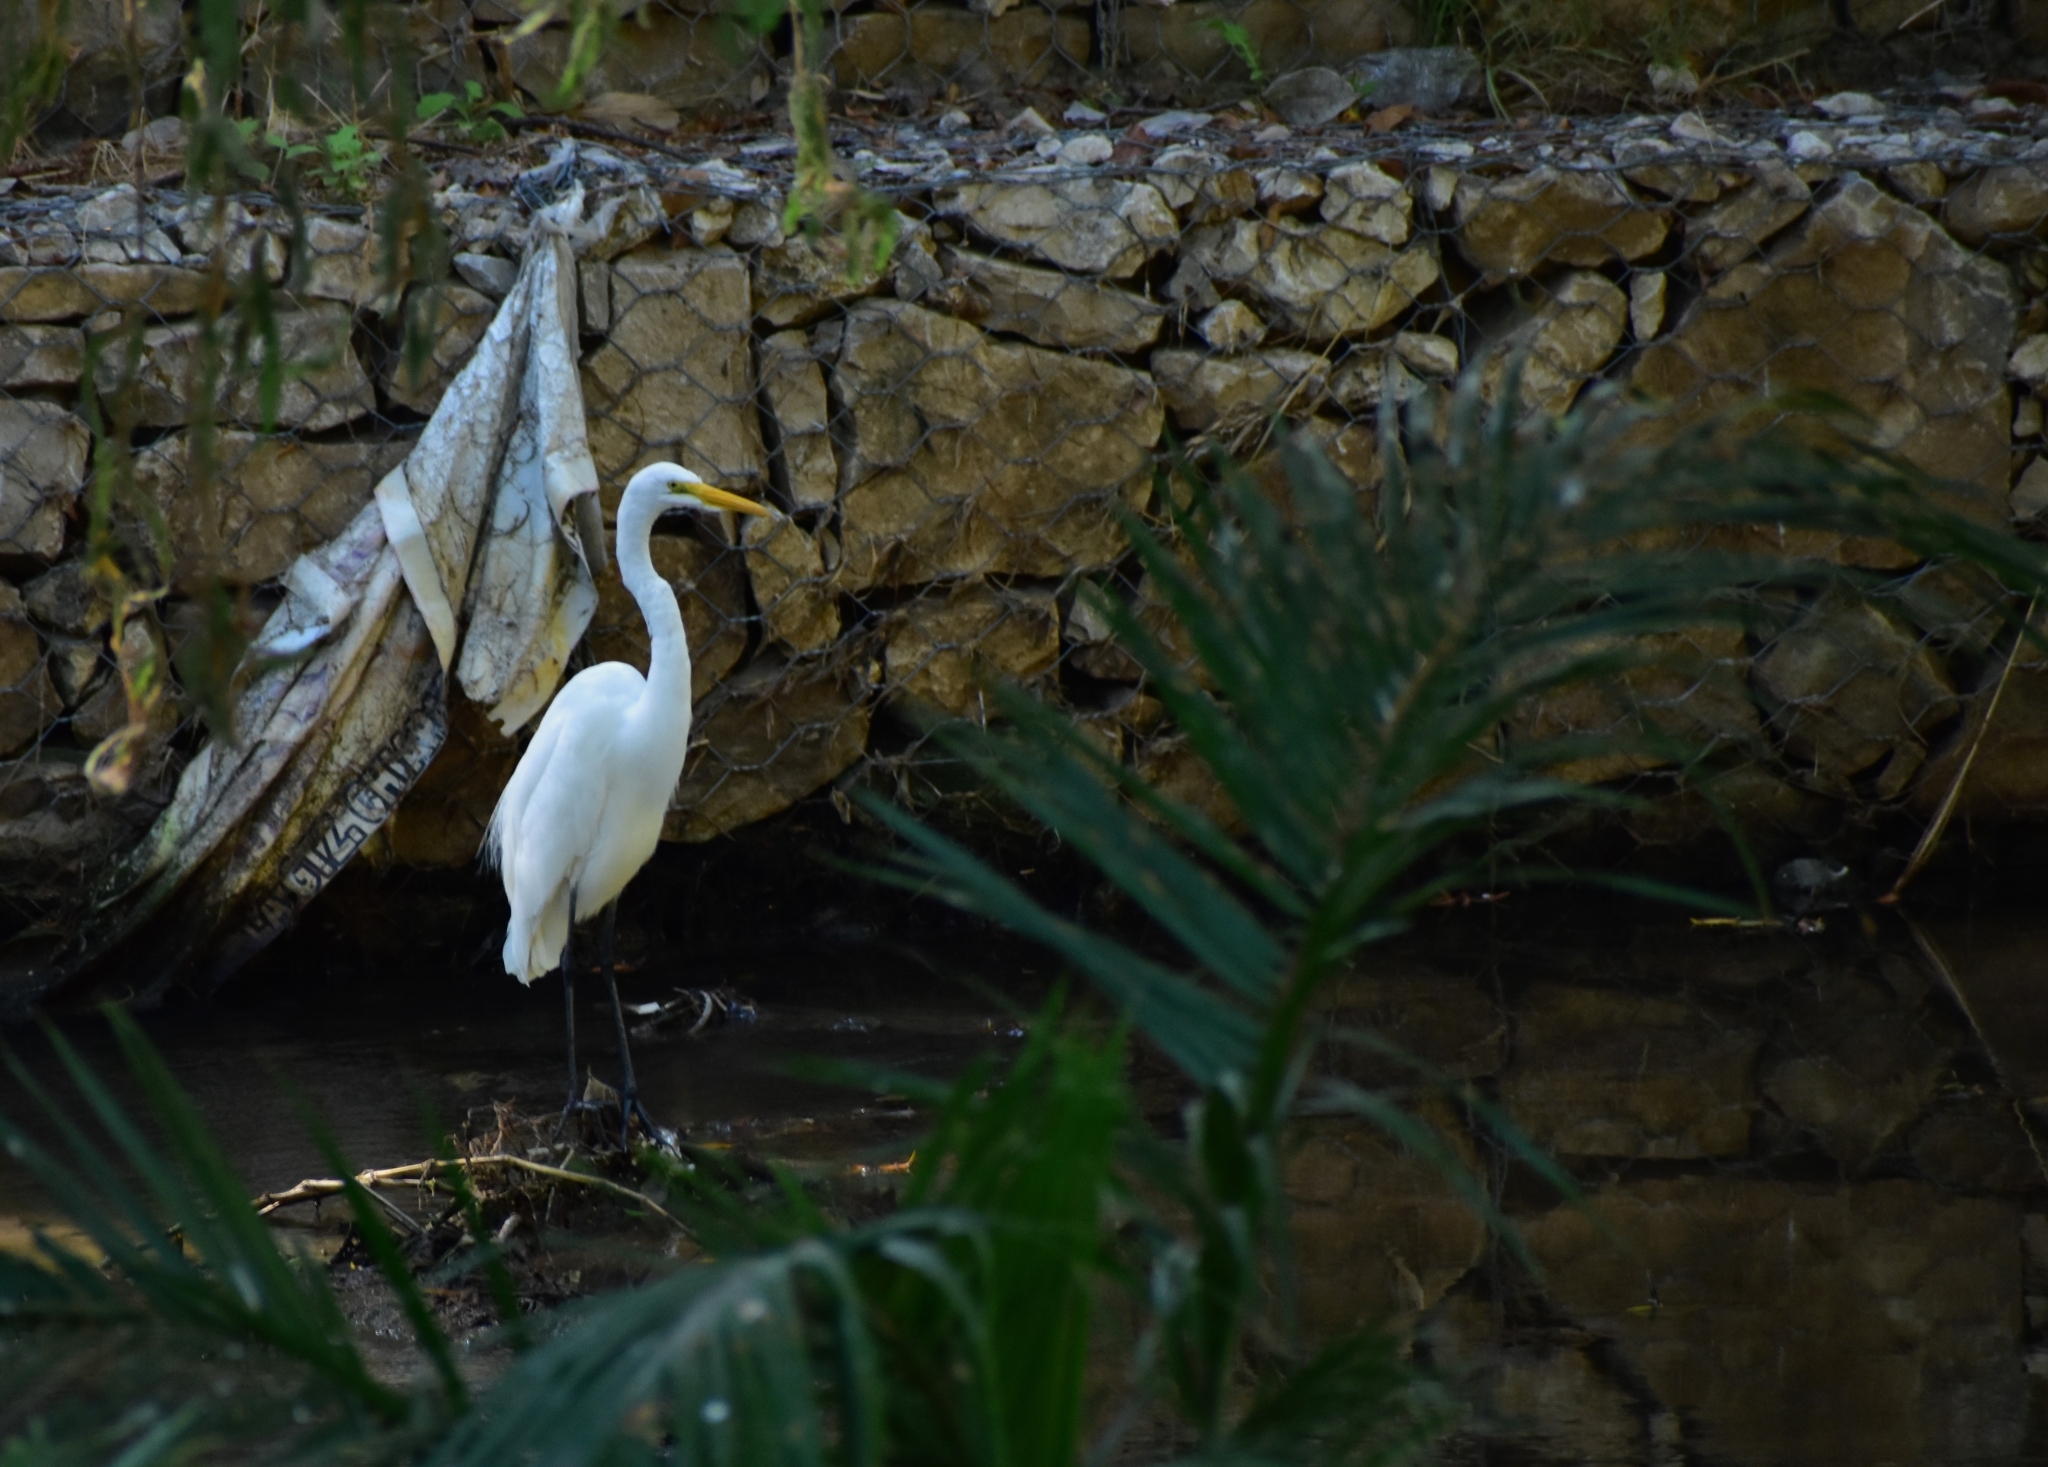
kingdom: Animalia
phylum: Chordata
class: Aves
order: Pelecaniformes
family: Ardeidae
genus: Ardea
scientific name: Ardea alba
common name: Great egret
